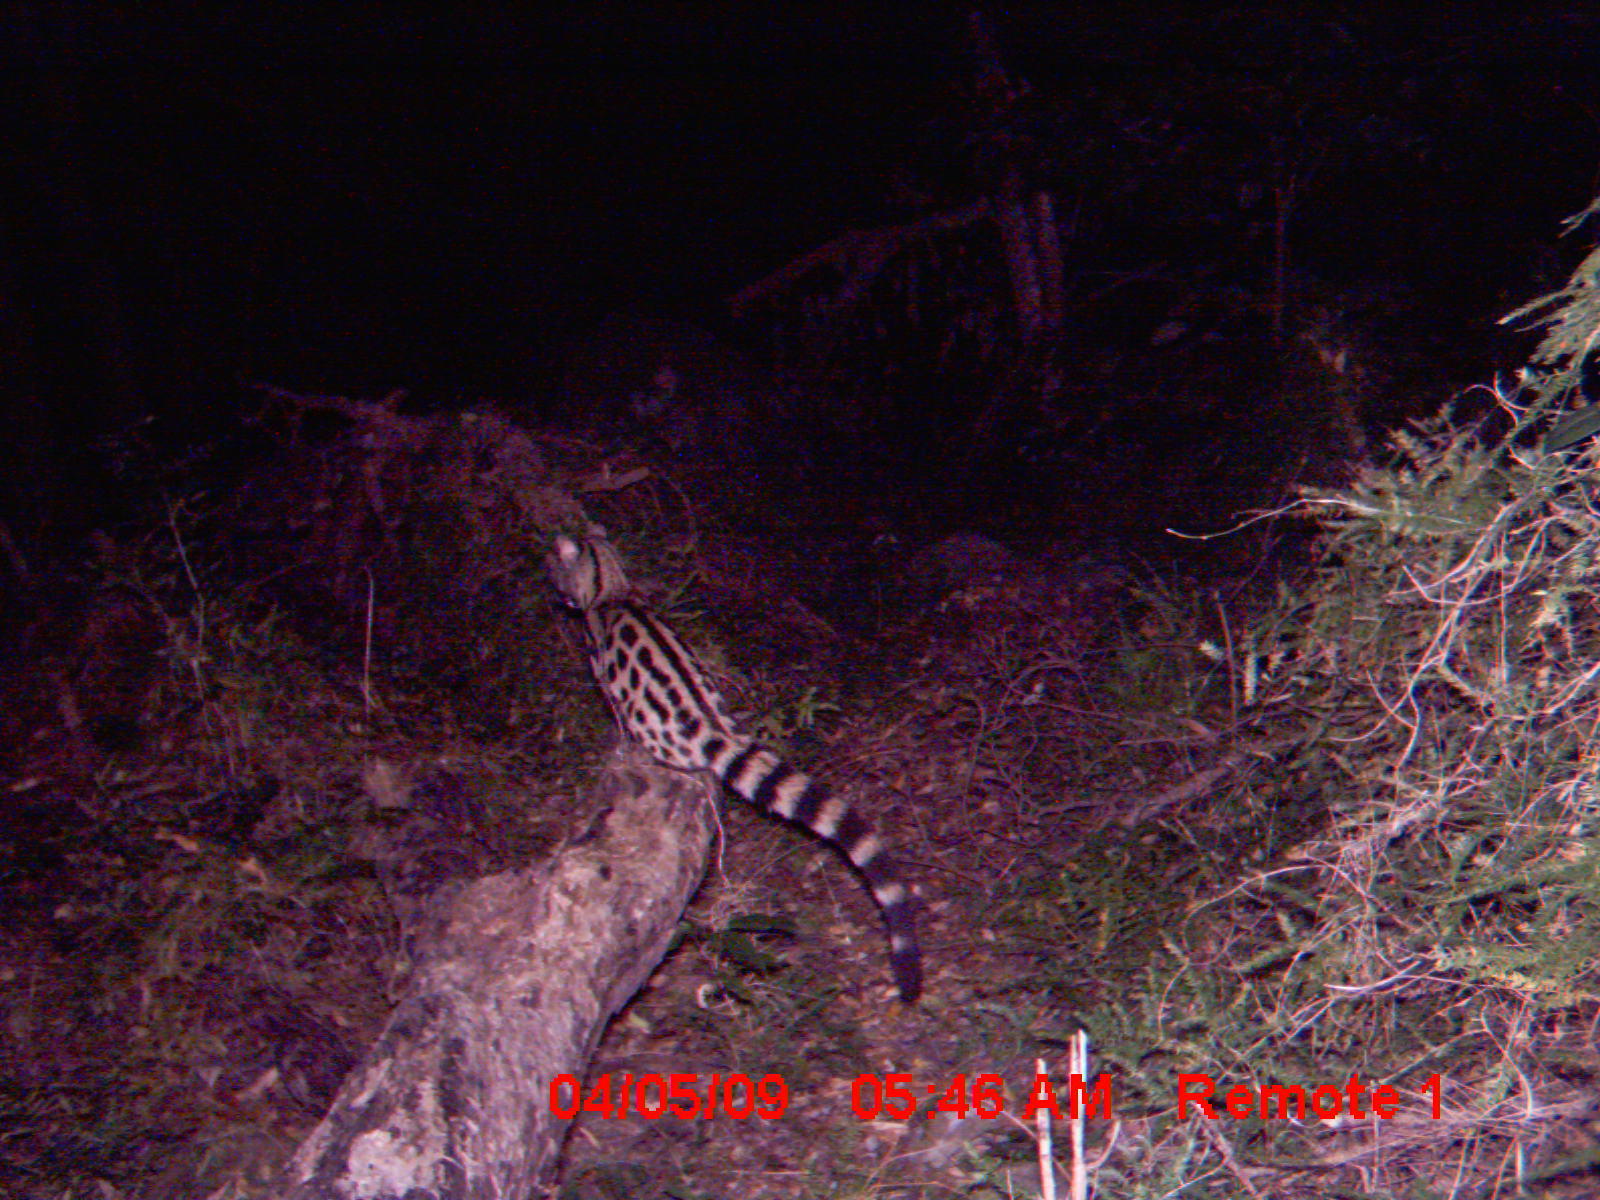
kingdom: Animalia
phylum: Chordata
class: Mammalia
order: Carnivora
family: Viverridae
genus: Genetta
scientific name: Genetta tigrina
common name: Cape genet
